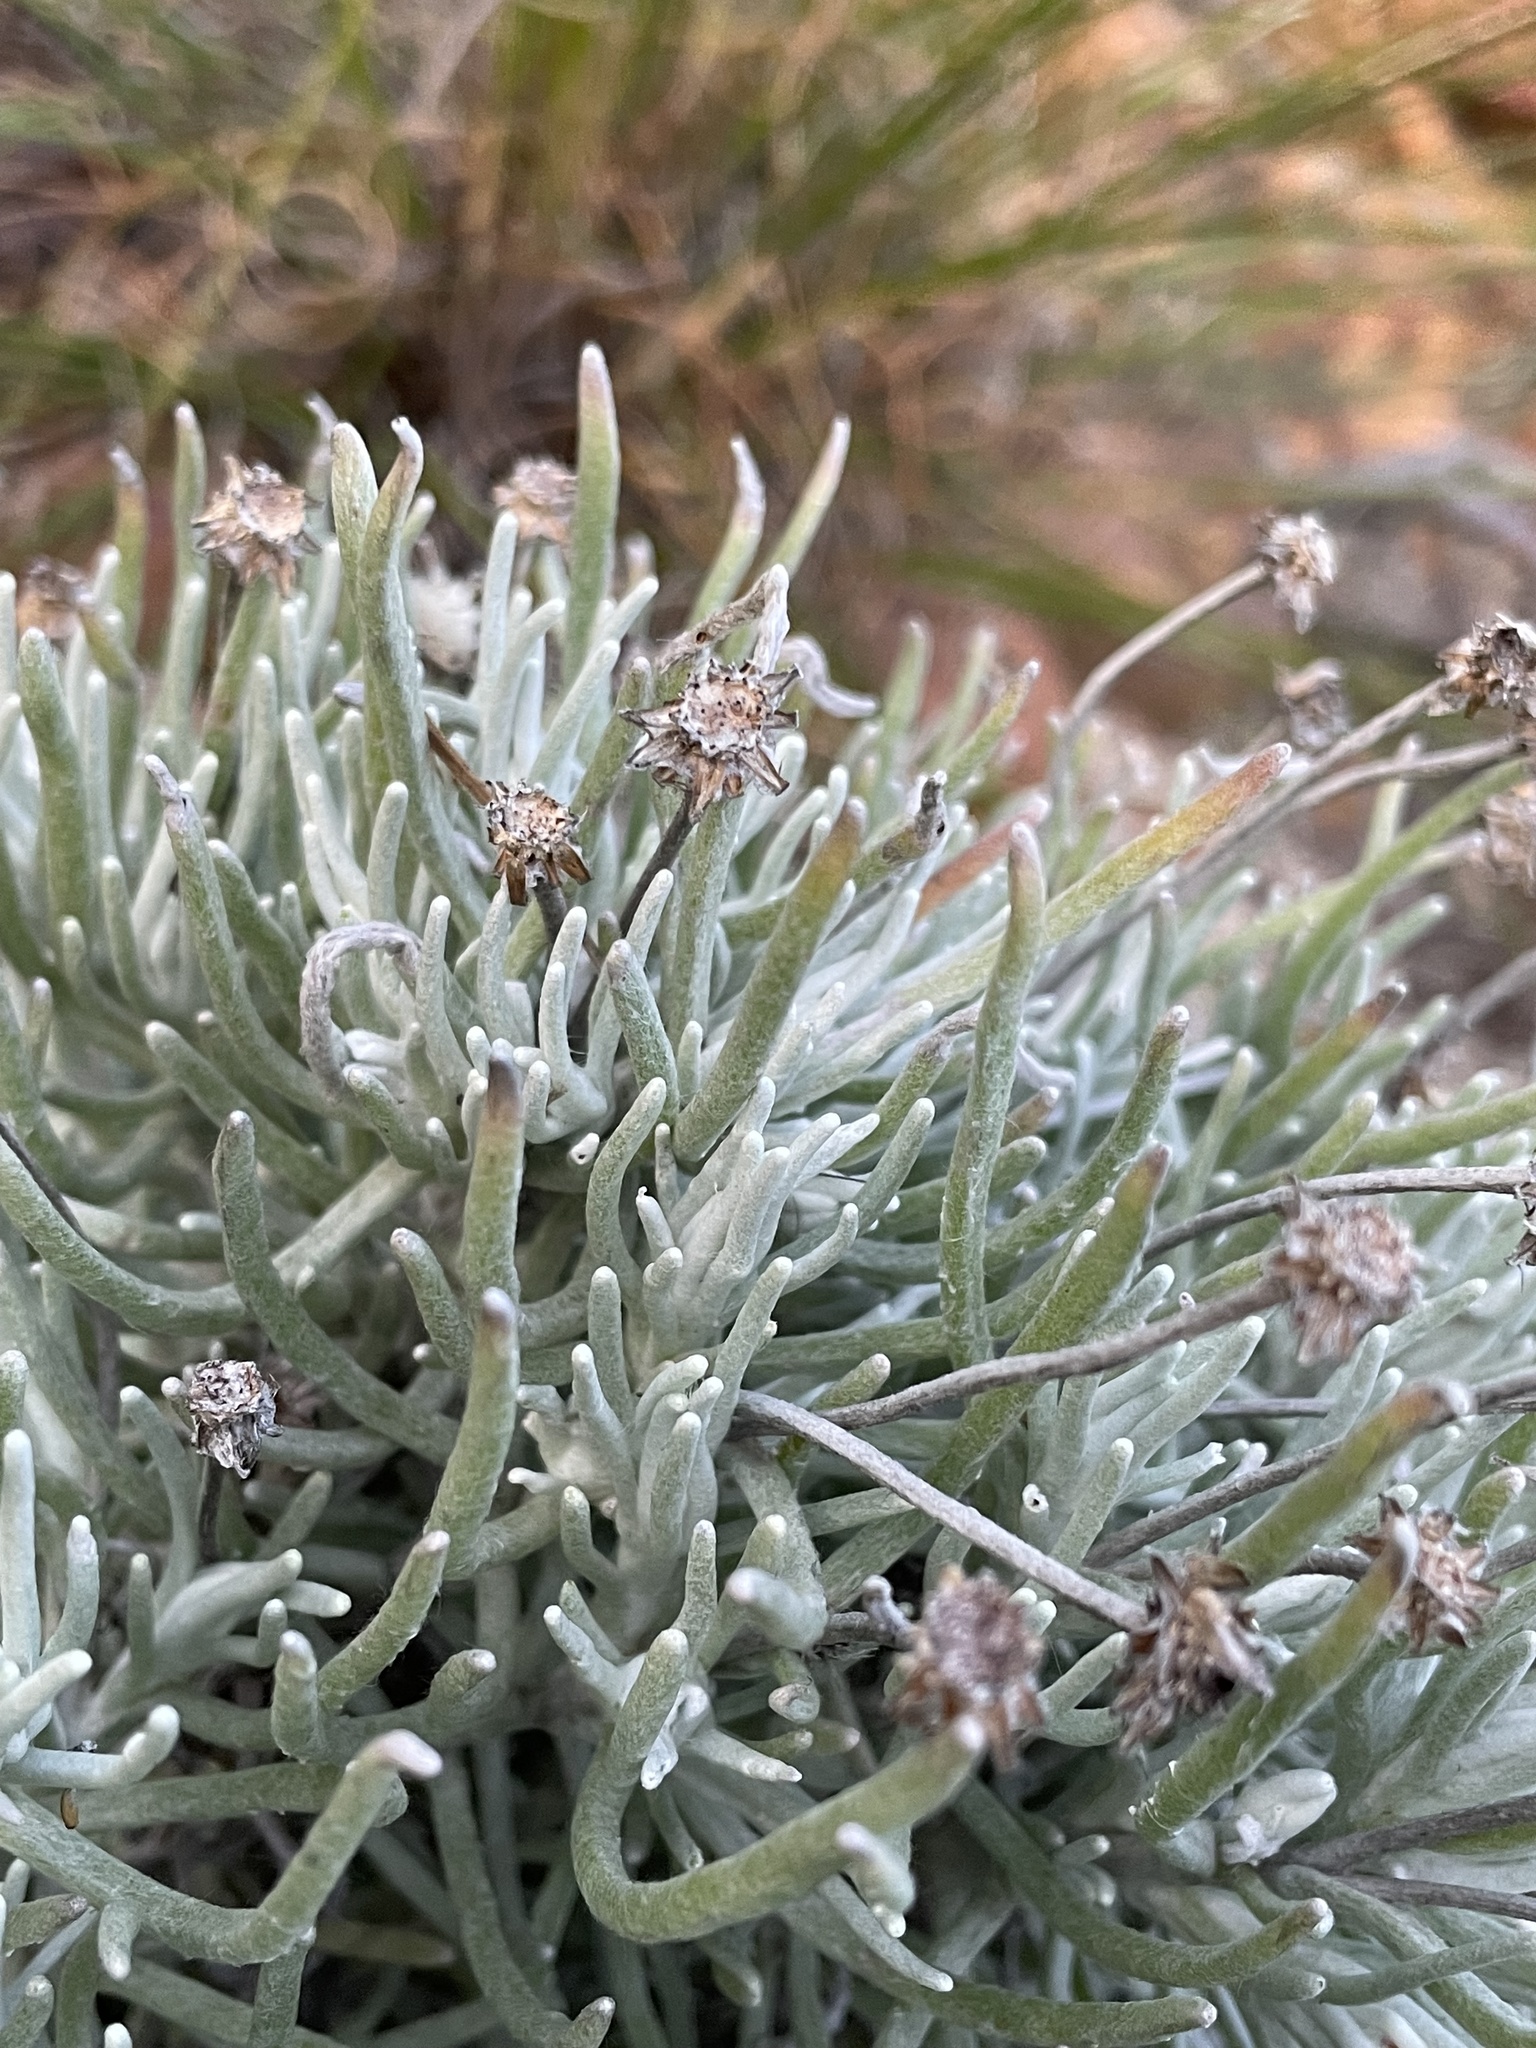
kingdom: Plantae
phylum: Tracheophyta
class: Magnoliopsida
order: Asterales
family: Asteraceae
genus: Syncarpha
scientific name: Syncarpha gnaphaloides
